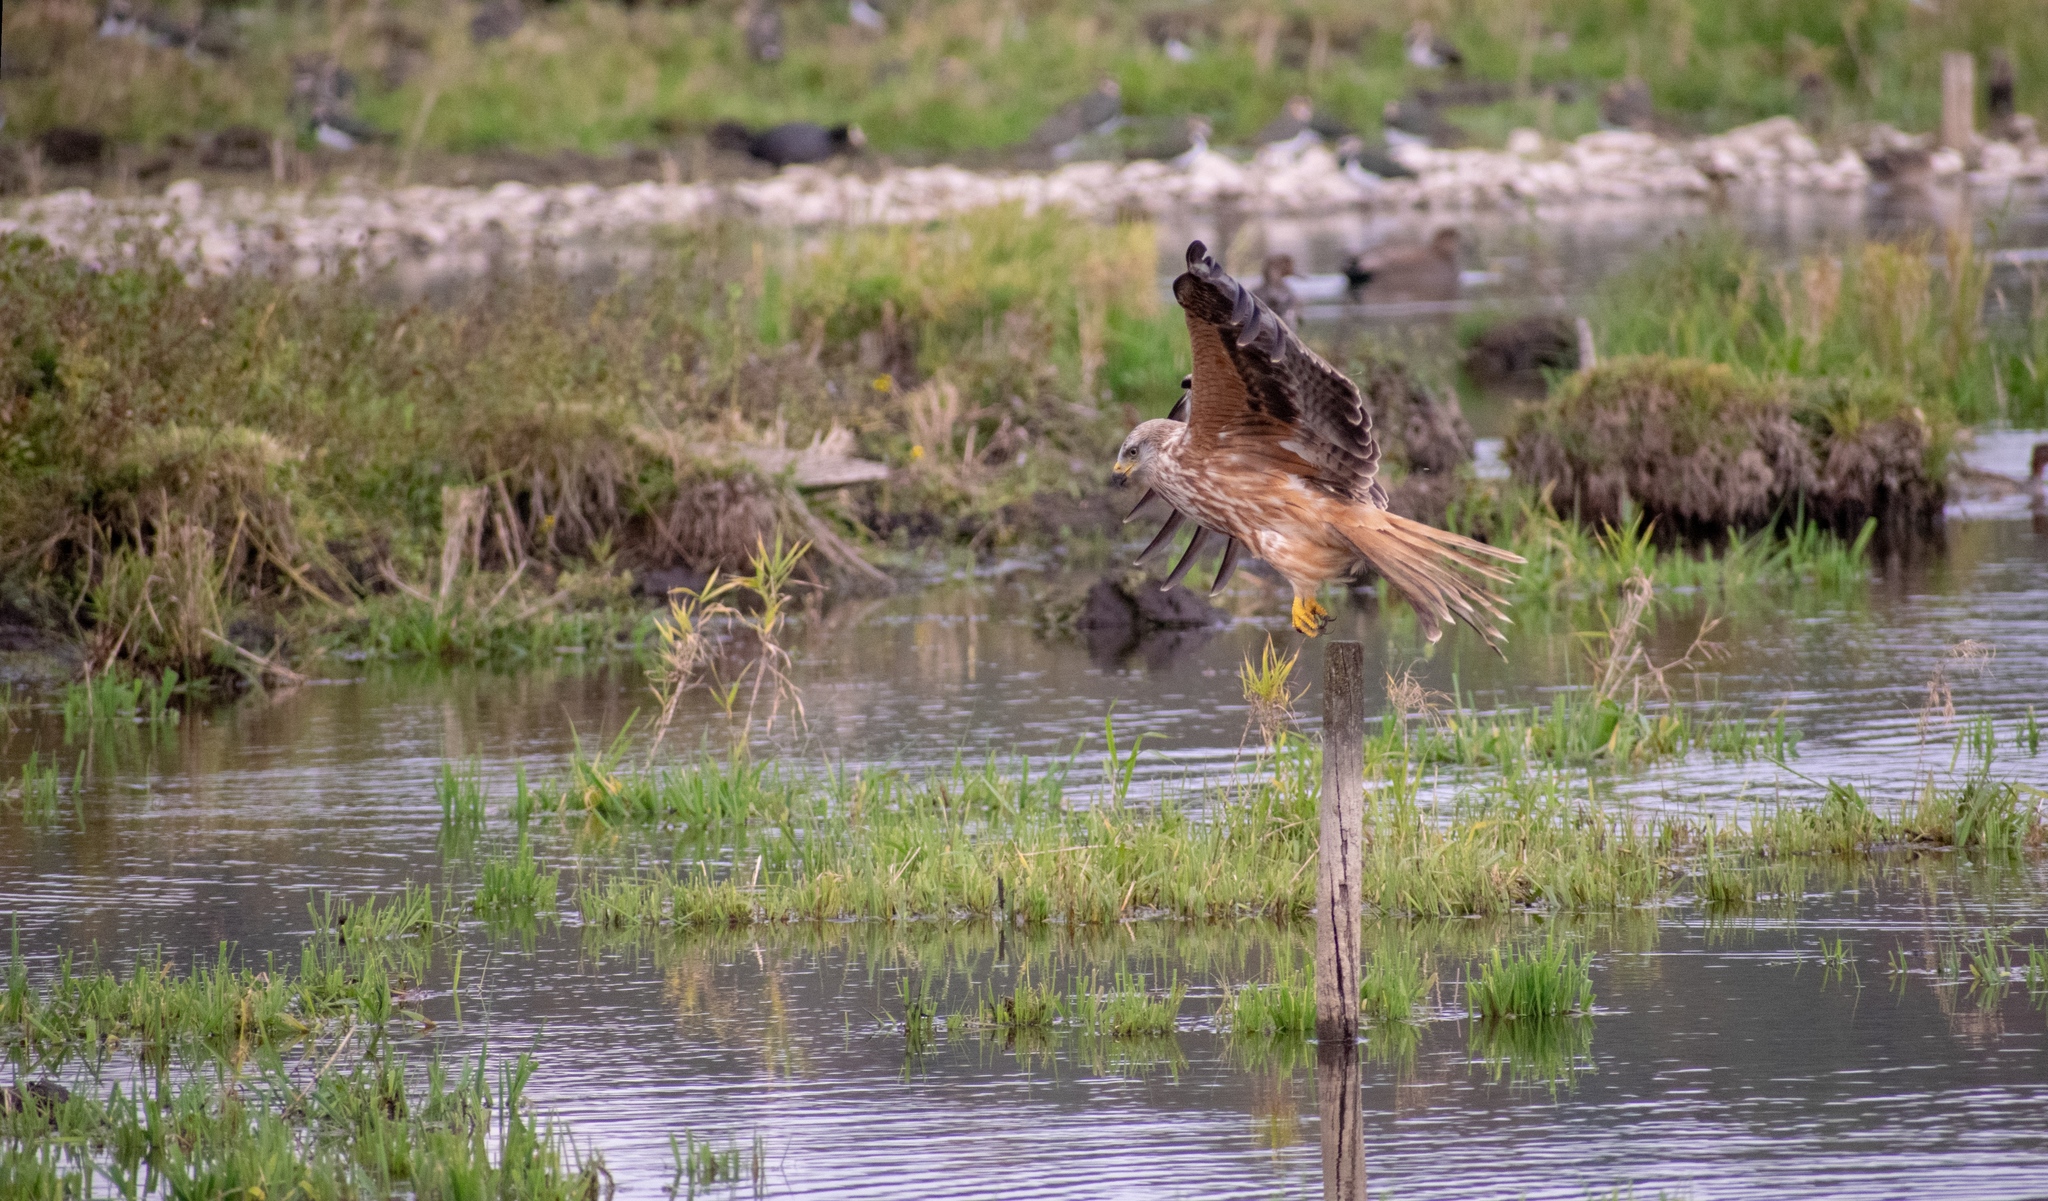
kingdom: Animalia
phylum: Chordata
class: Aves
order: Accipitriformes
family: Accipitridae
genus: Milvus
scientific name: Milvus milvus
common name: Red kite
